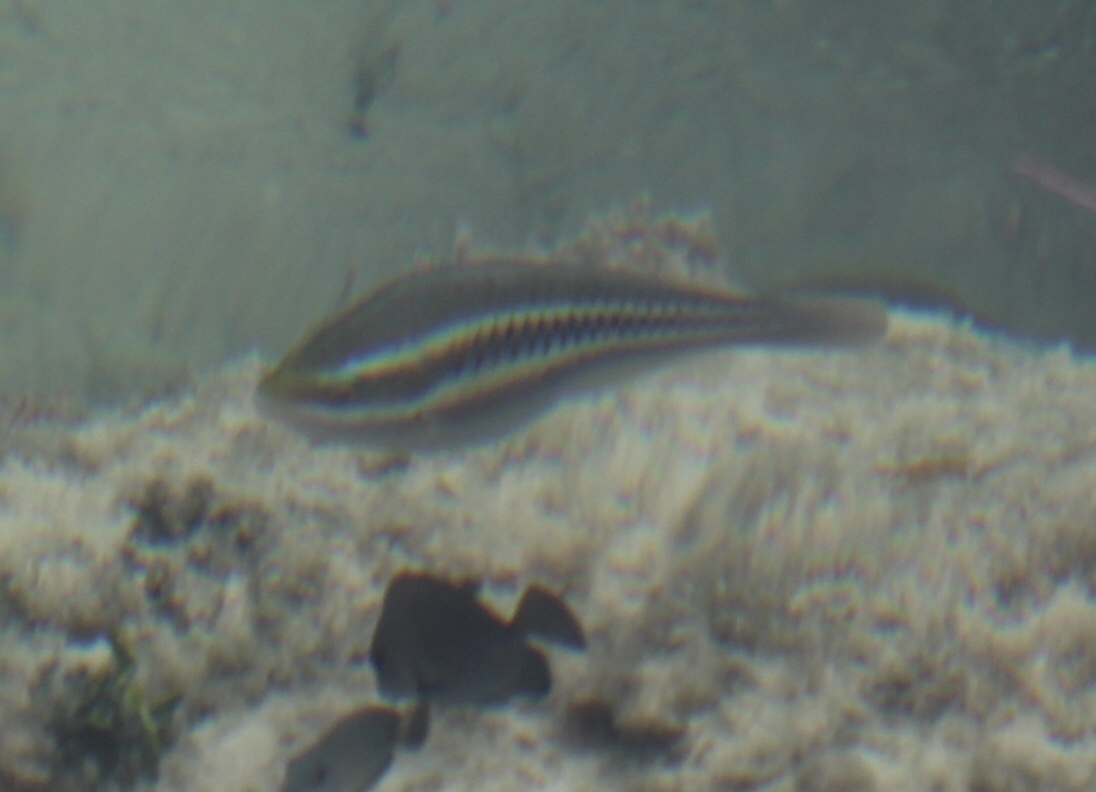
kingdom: Animalia
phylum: Chordata
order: Perciformes
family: Scaridae
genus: Scarus
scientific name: Scarus iseri
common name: Striped parrotfish
